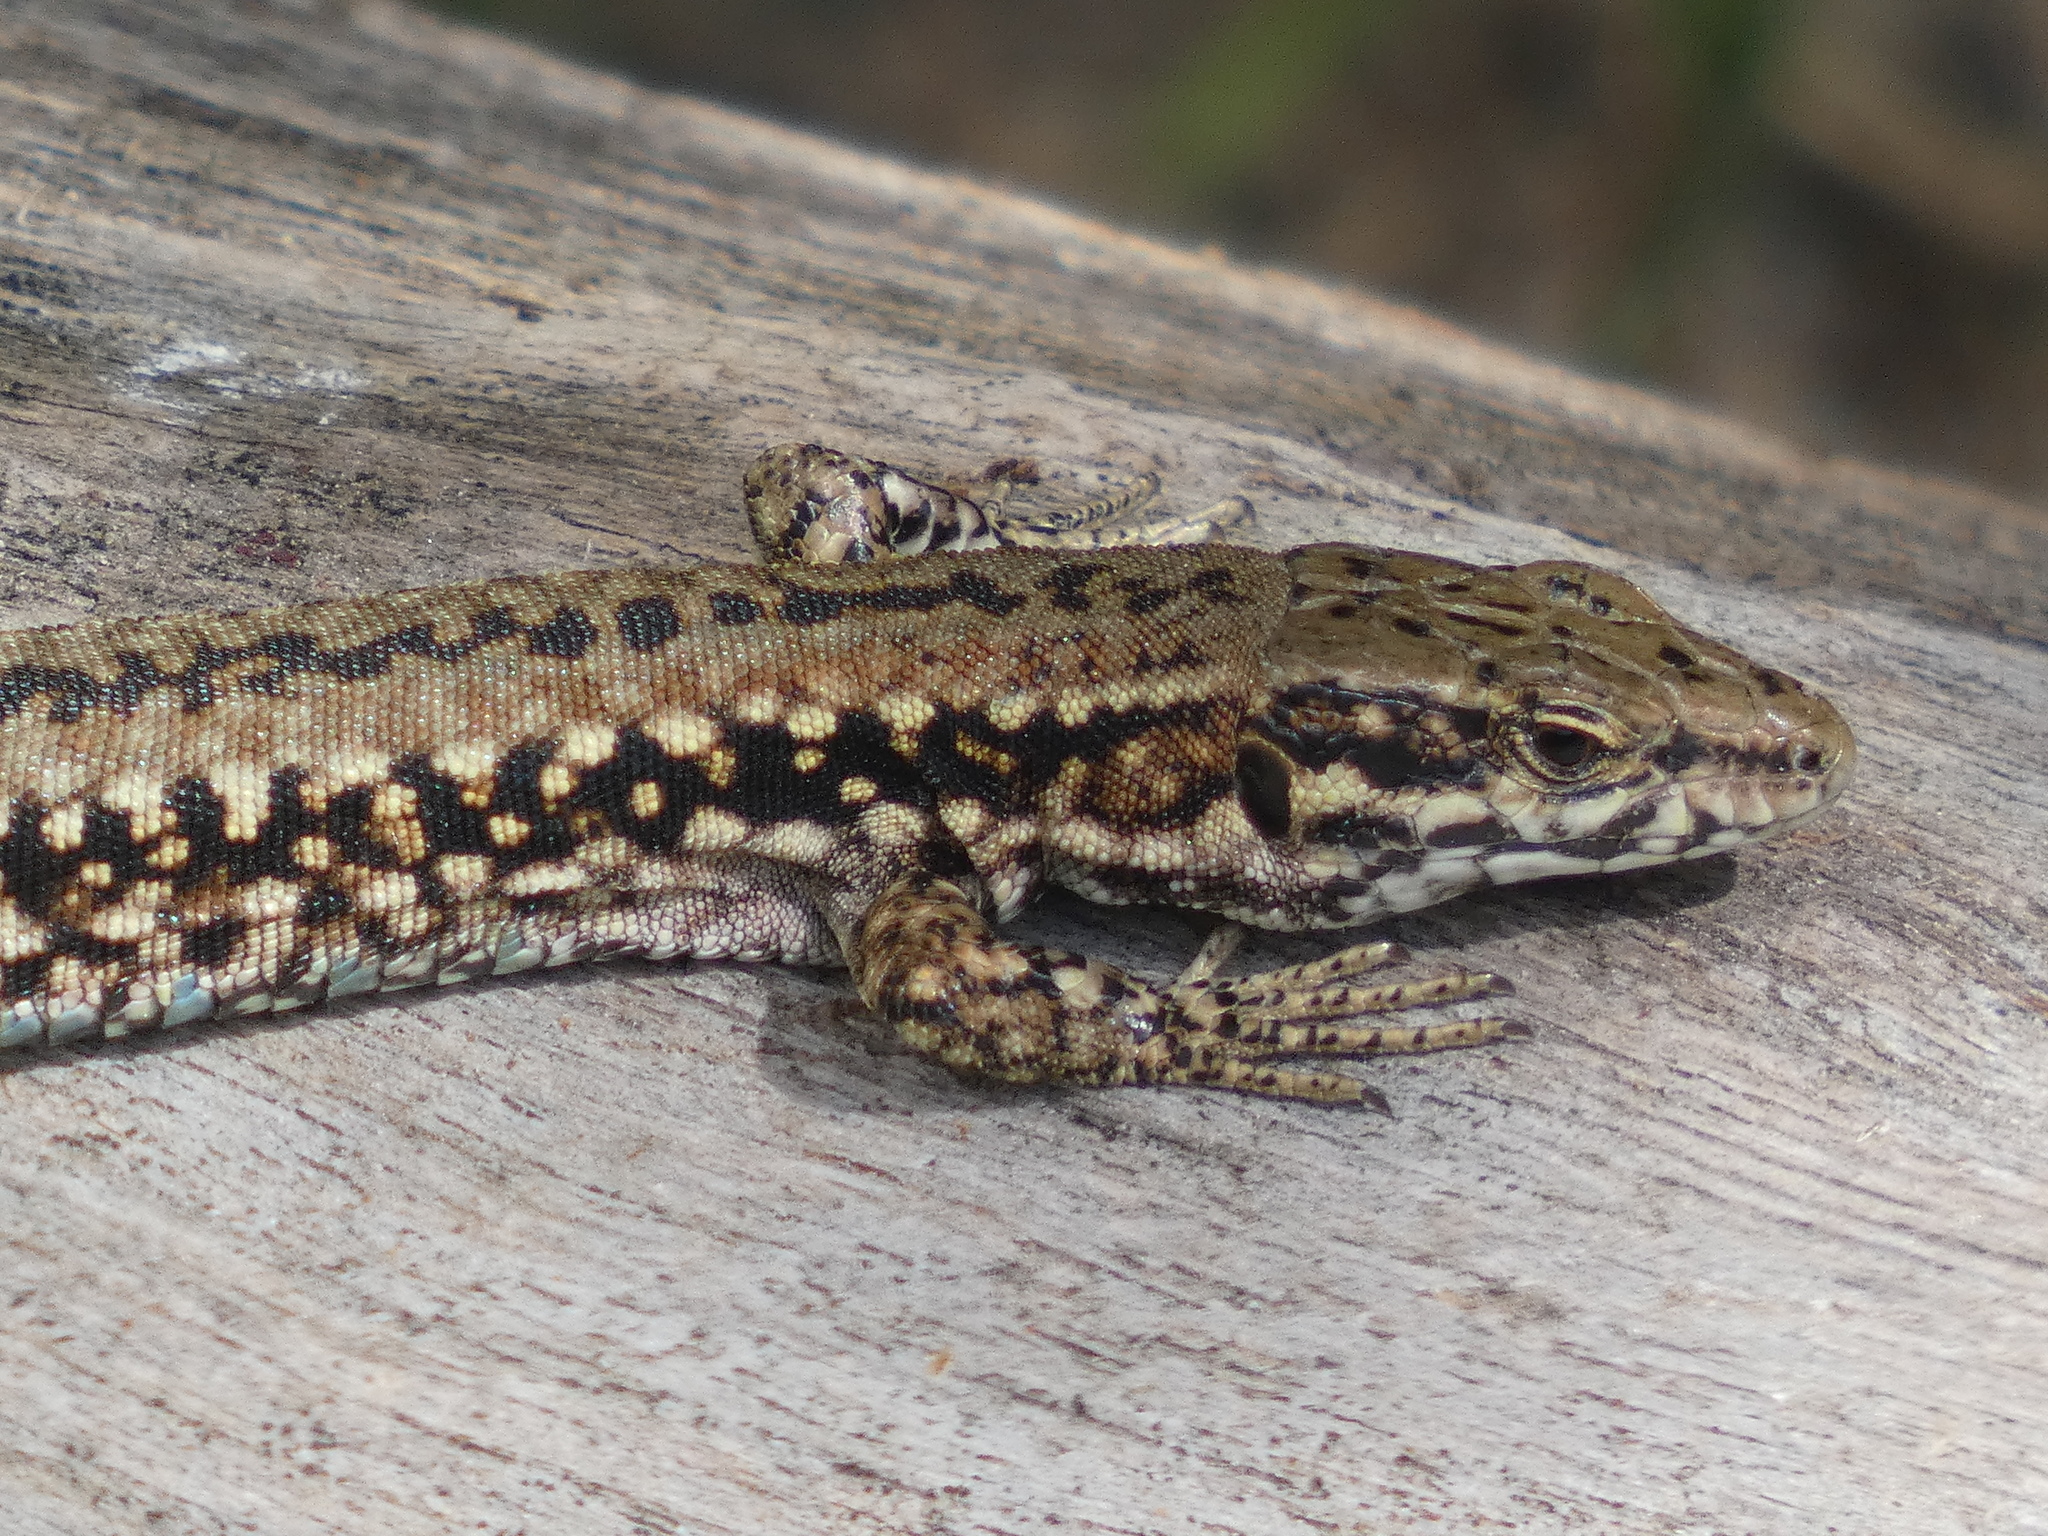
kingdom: Animalia
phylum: Chordata
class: Squamata
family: Lacertidae
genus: Podarcis
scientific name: Podarcis muralis
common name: Common wall lizard
